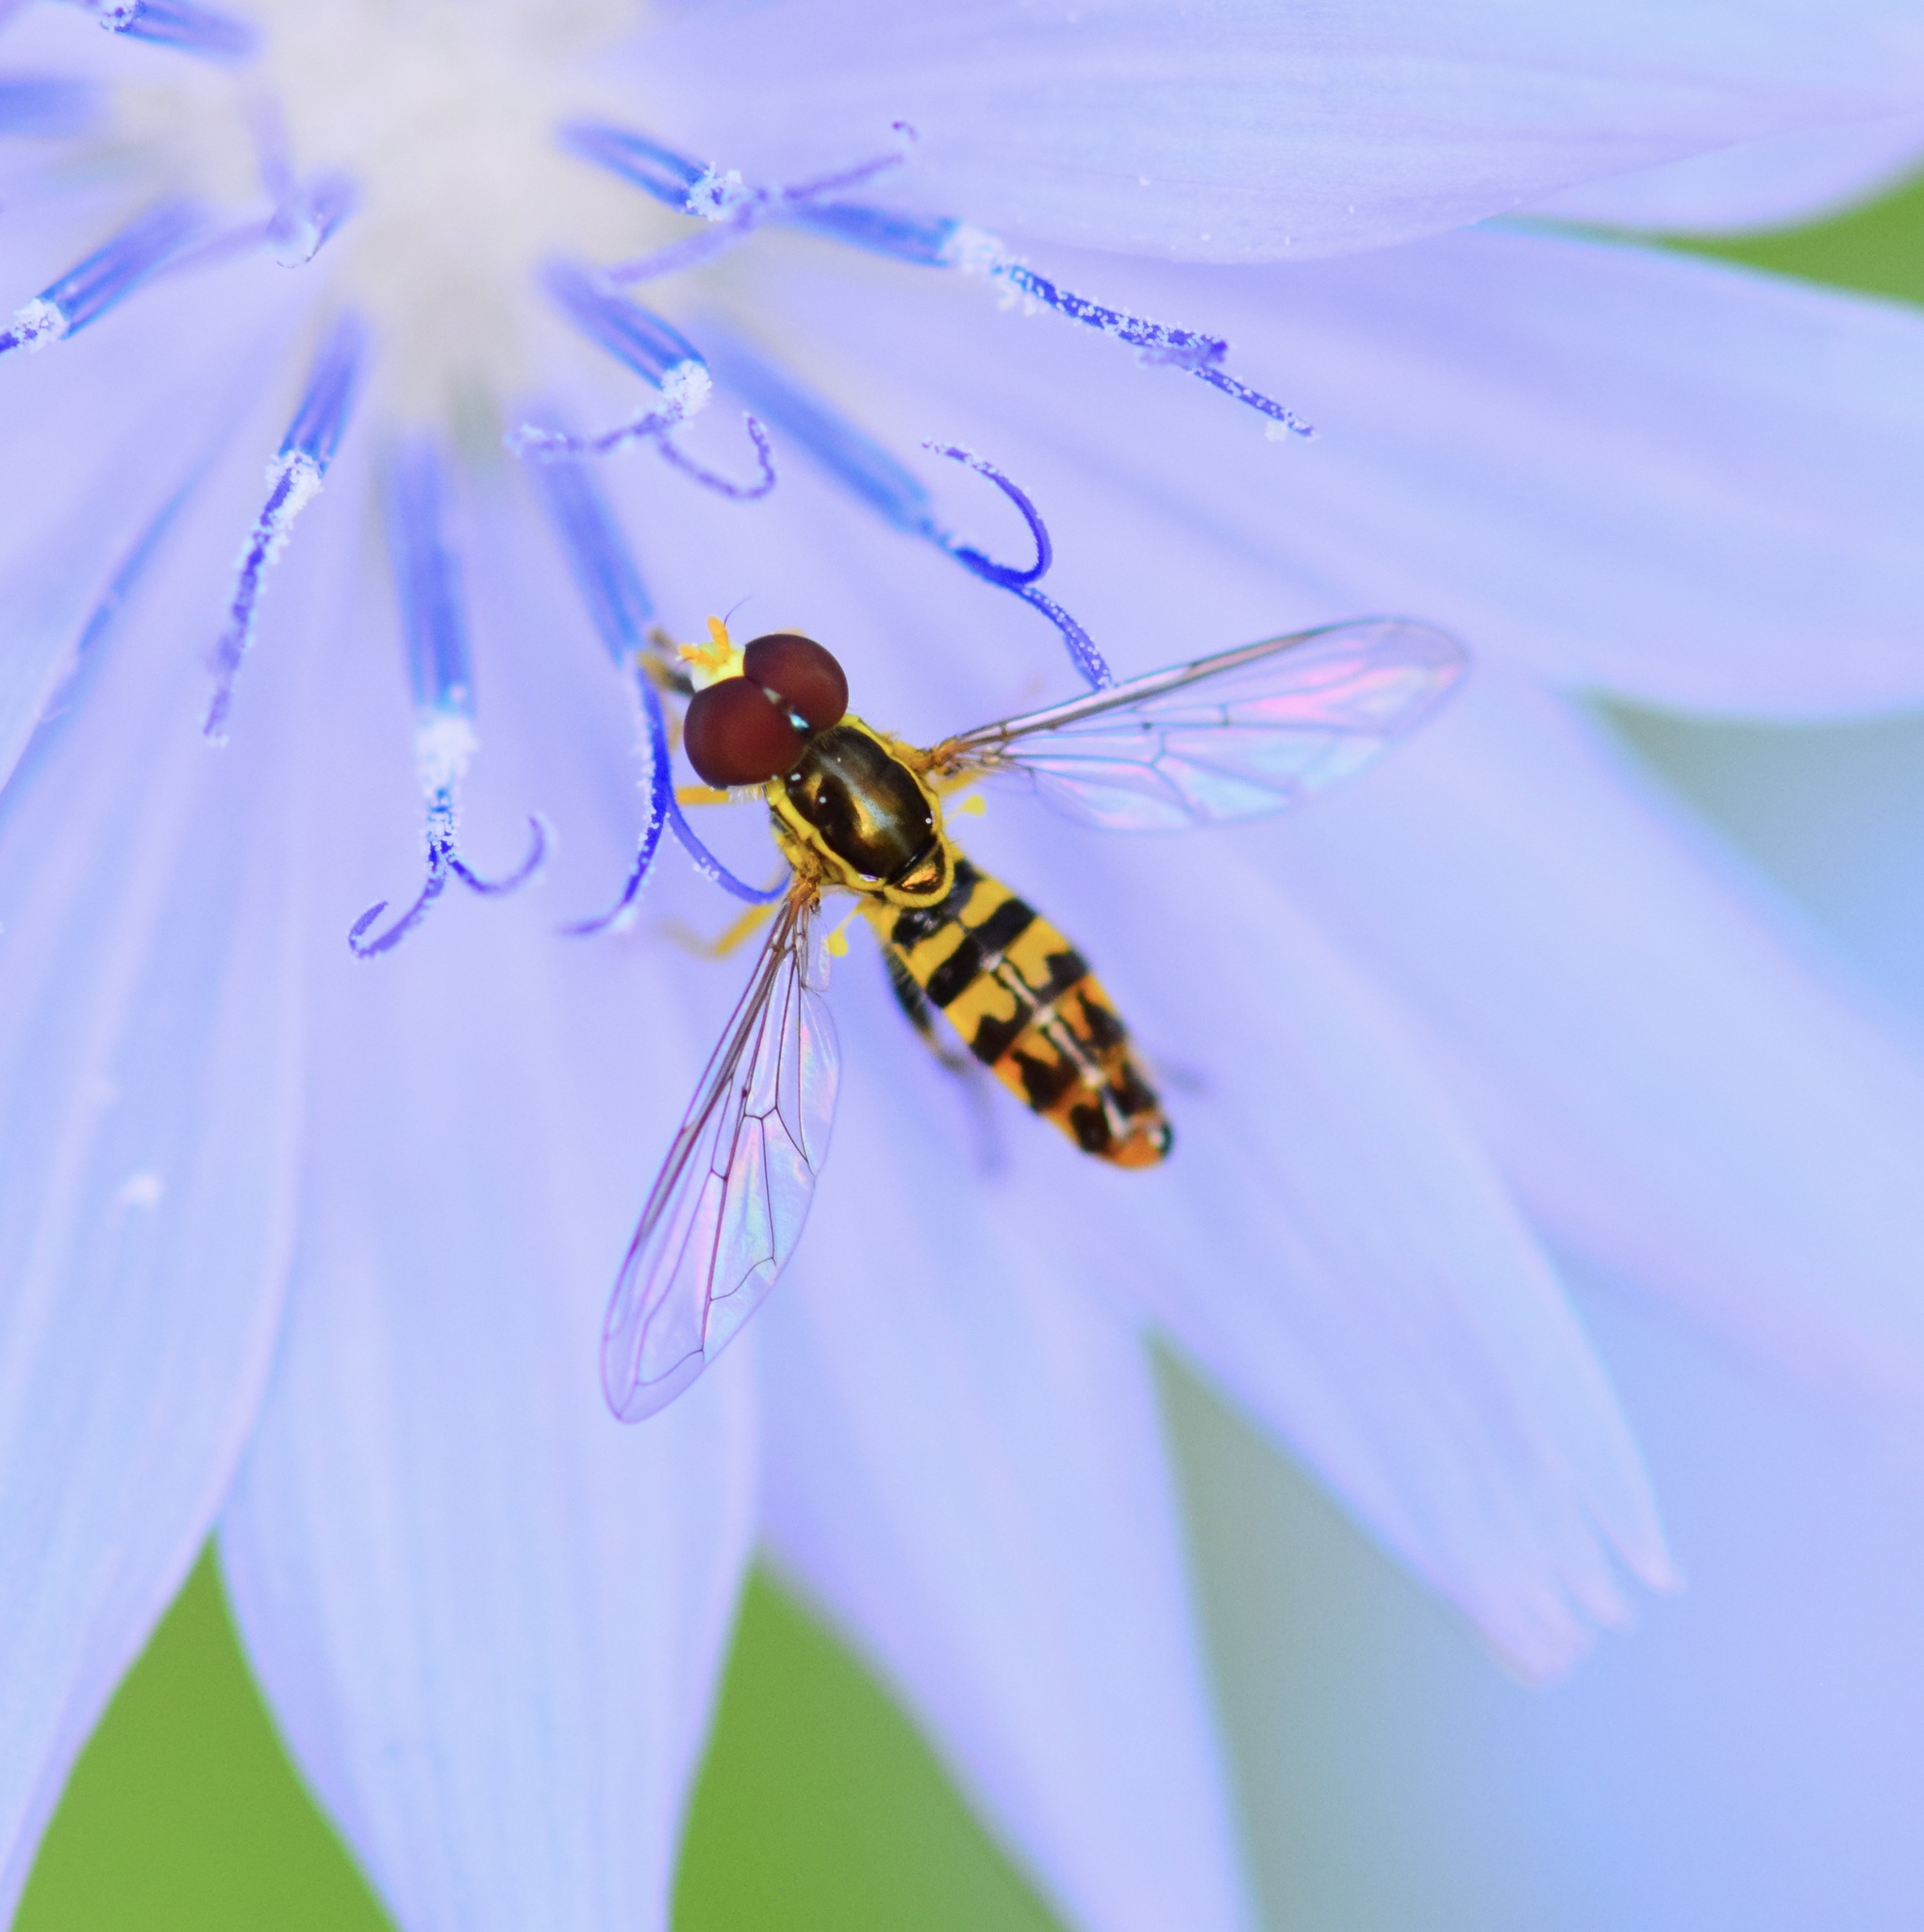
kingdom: Animalia
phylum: Arthropoda
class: Insecta
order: Diptera
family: Syrphidae
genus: Toxomerus
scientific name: Toxomerus geminatus
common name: Eastern calligrapher
